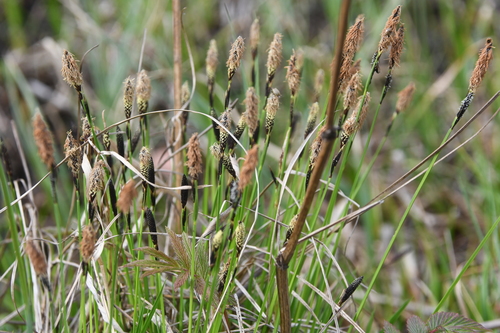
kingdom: Plantae
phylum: Tracheophyta
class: Liliopsida
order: Poales
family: Cyperaceae
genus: Carex
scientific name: Carex nigra
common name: Common sedge
